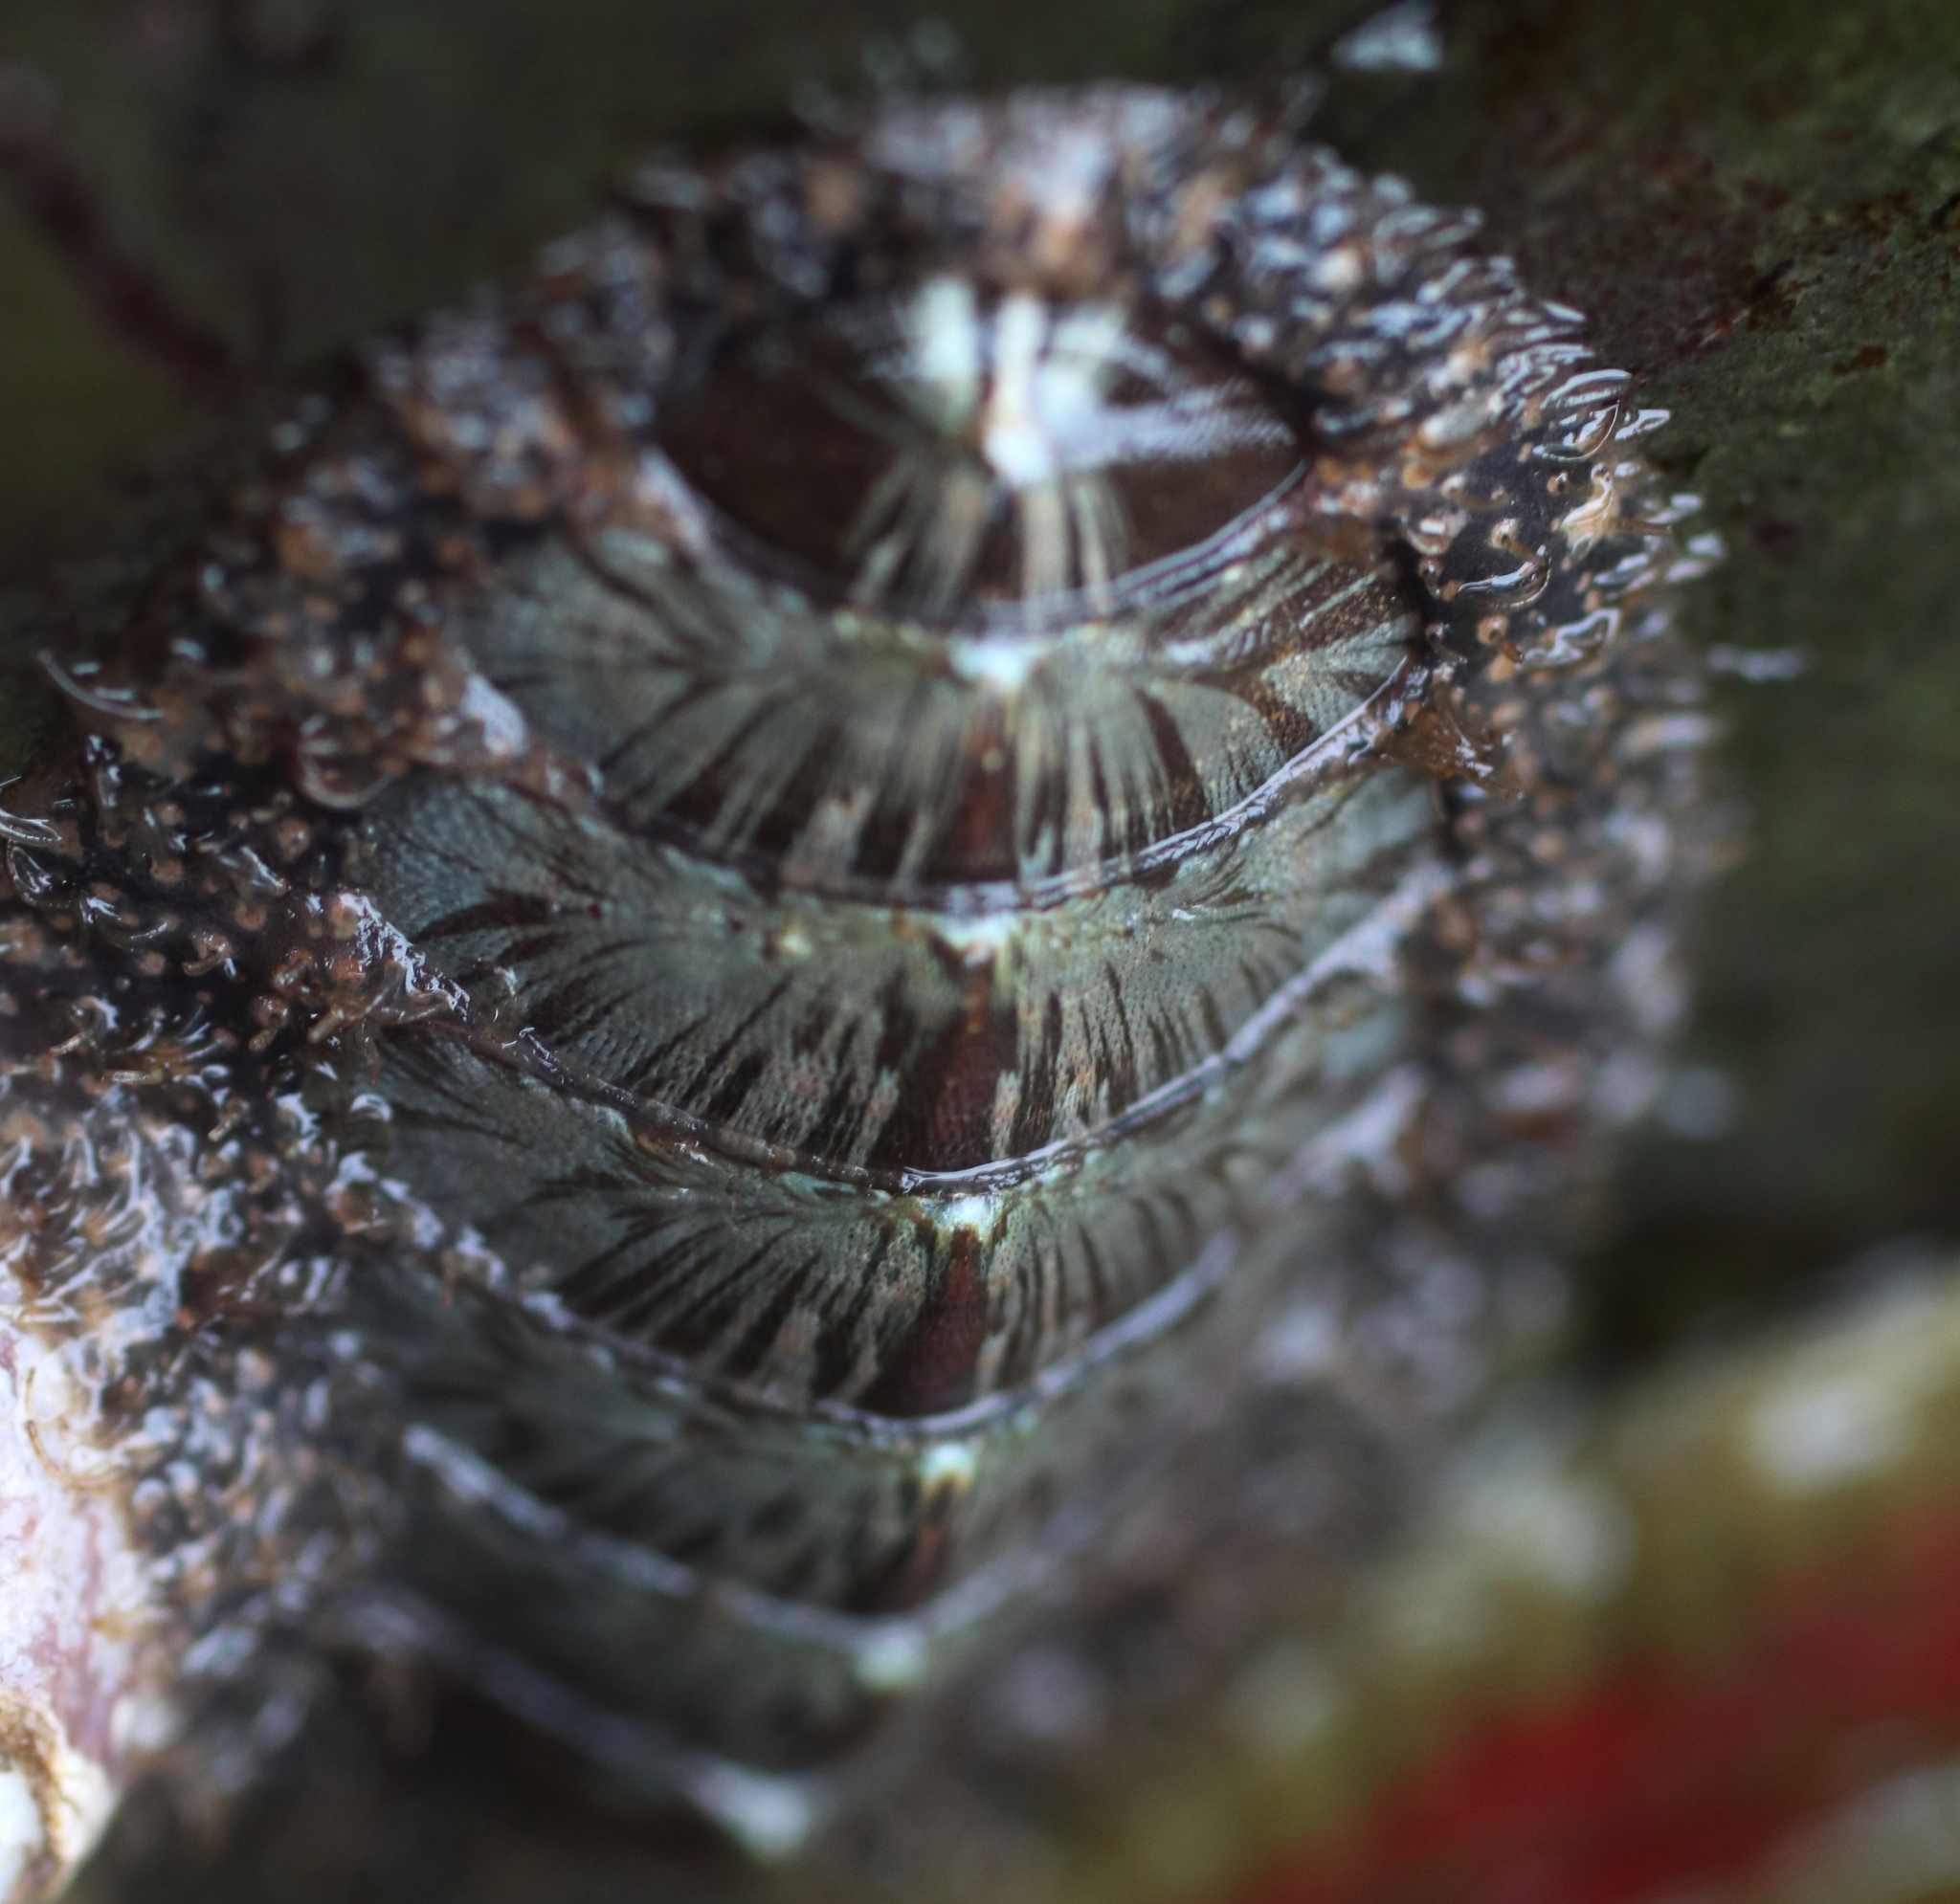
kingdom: Animalia
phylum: Mollusca
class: Polyplacophora
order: Chitonida
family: Mopaliidae
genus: Mopalia
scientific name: Mopalia lignosa
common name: Woody chiton
